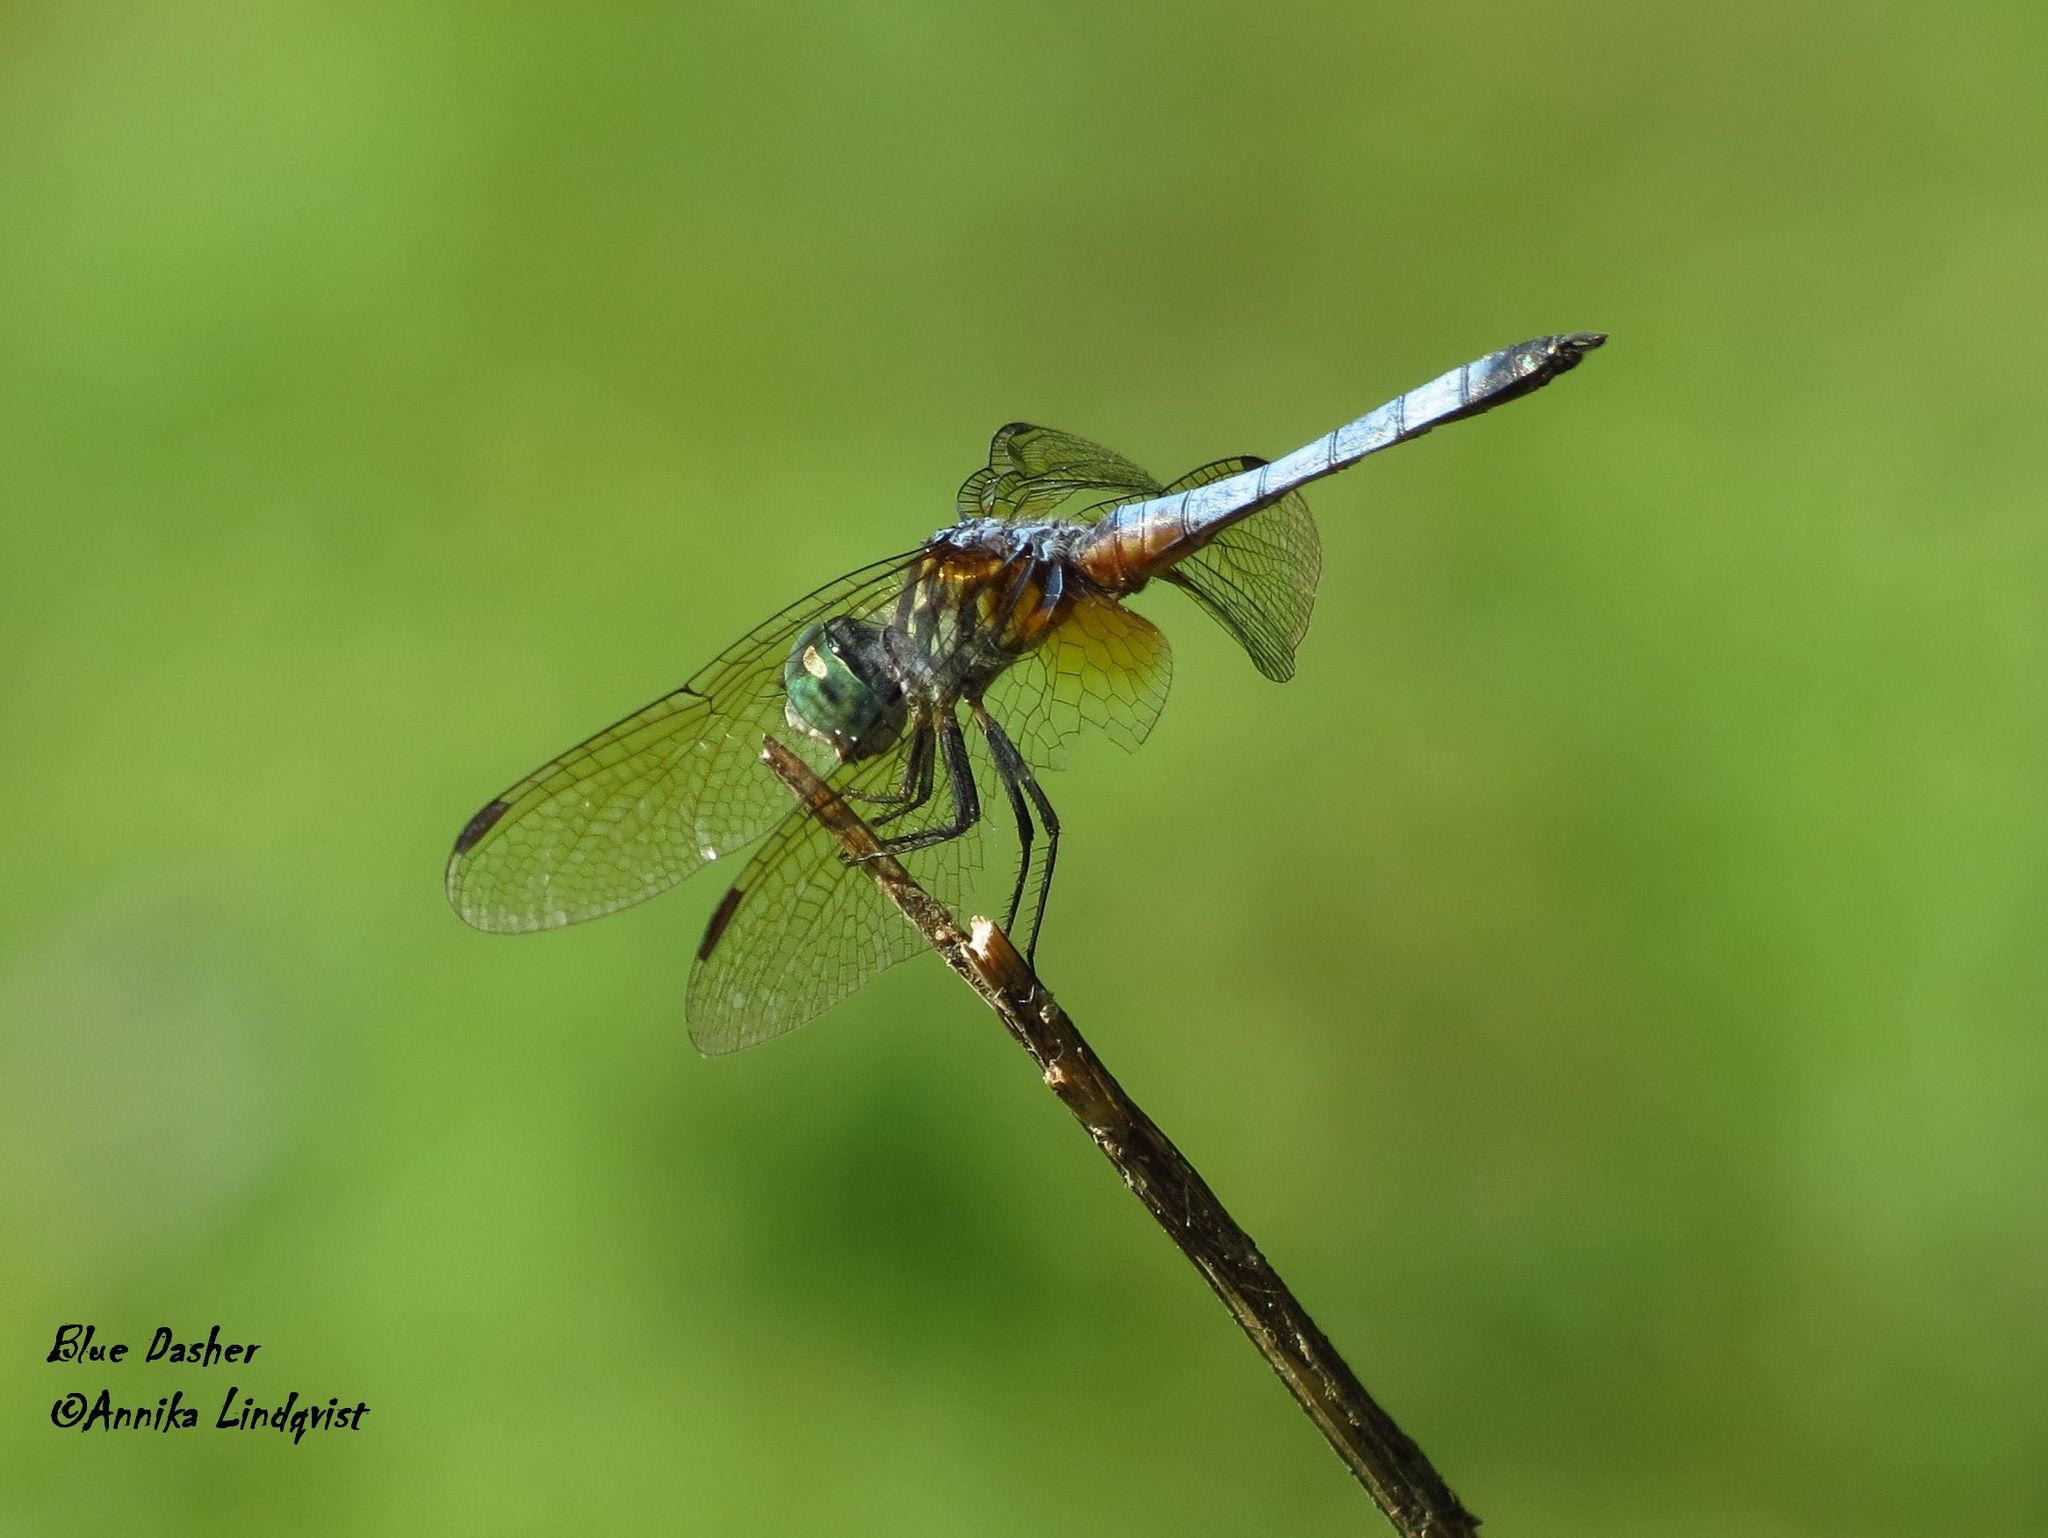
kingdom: Animalia
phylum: Arthropoda
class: Insecta
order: Odonata
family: Libellulidae
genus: Pachydiplax
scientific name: Pachydiplax longipennis
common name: Blue dasher
